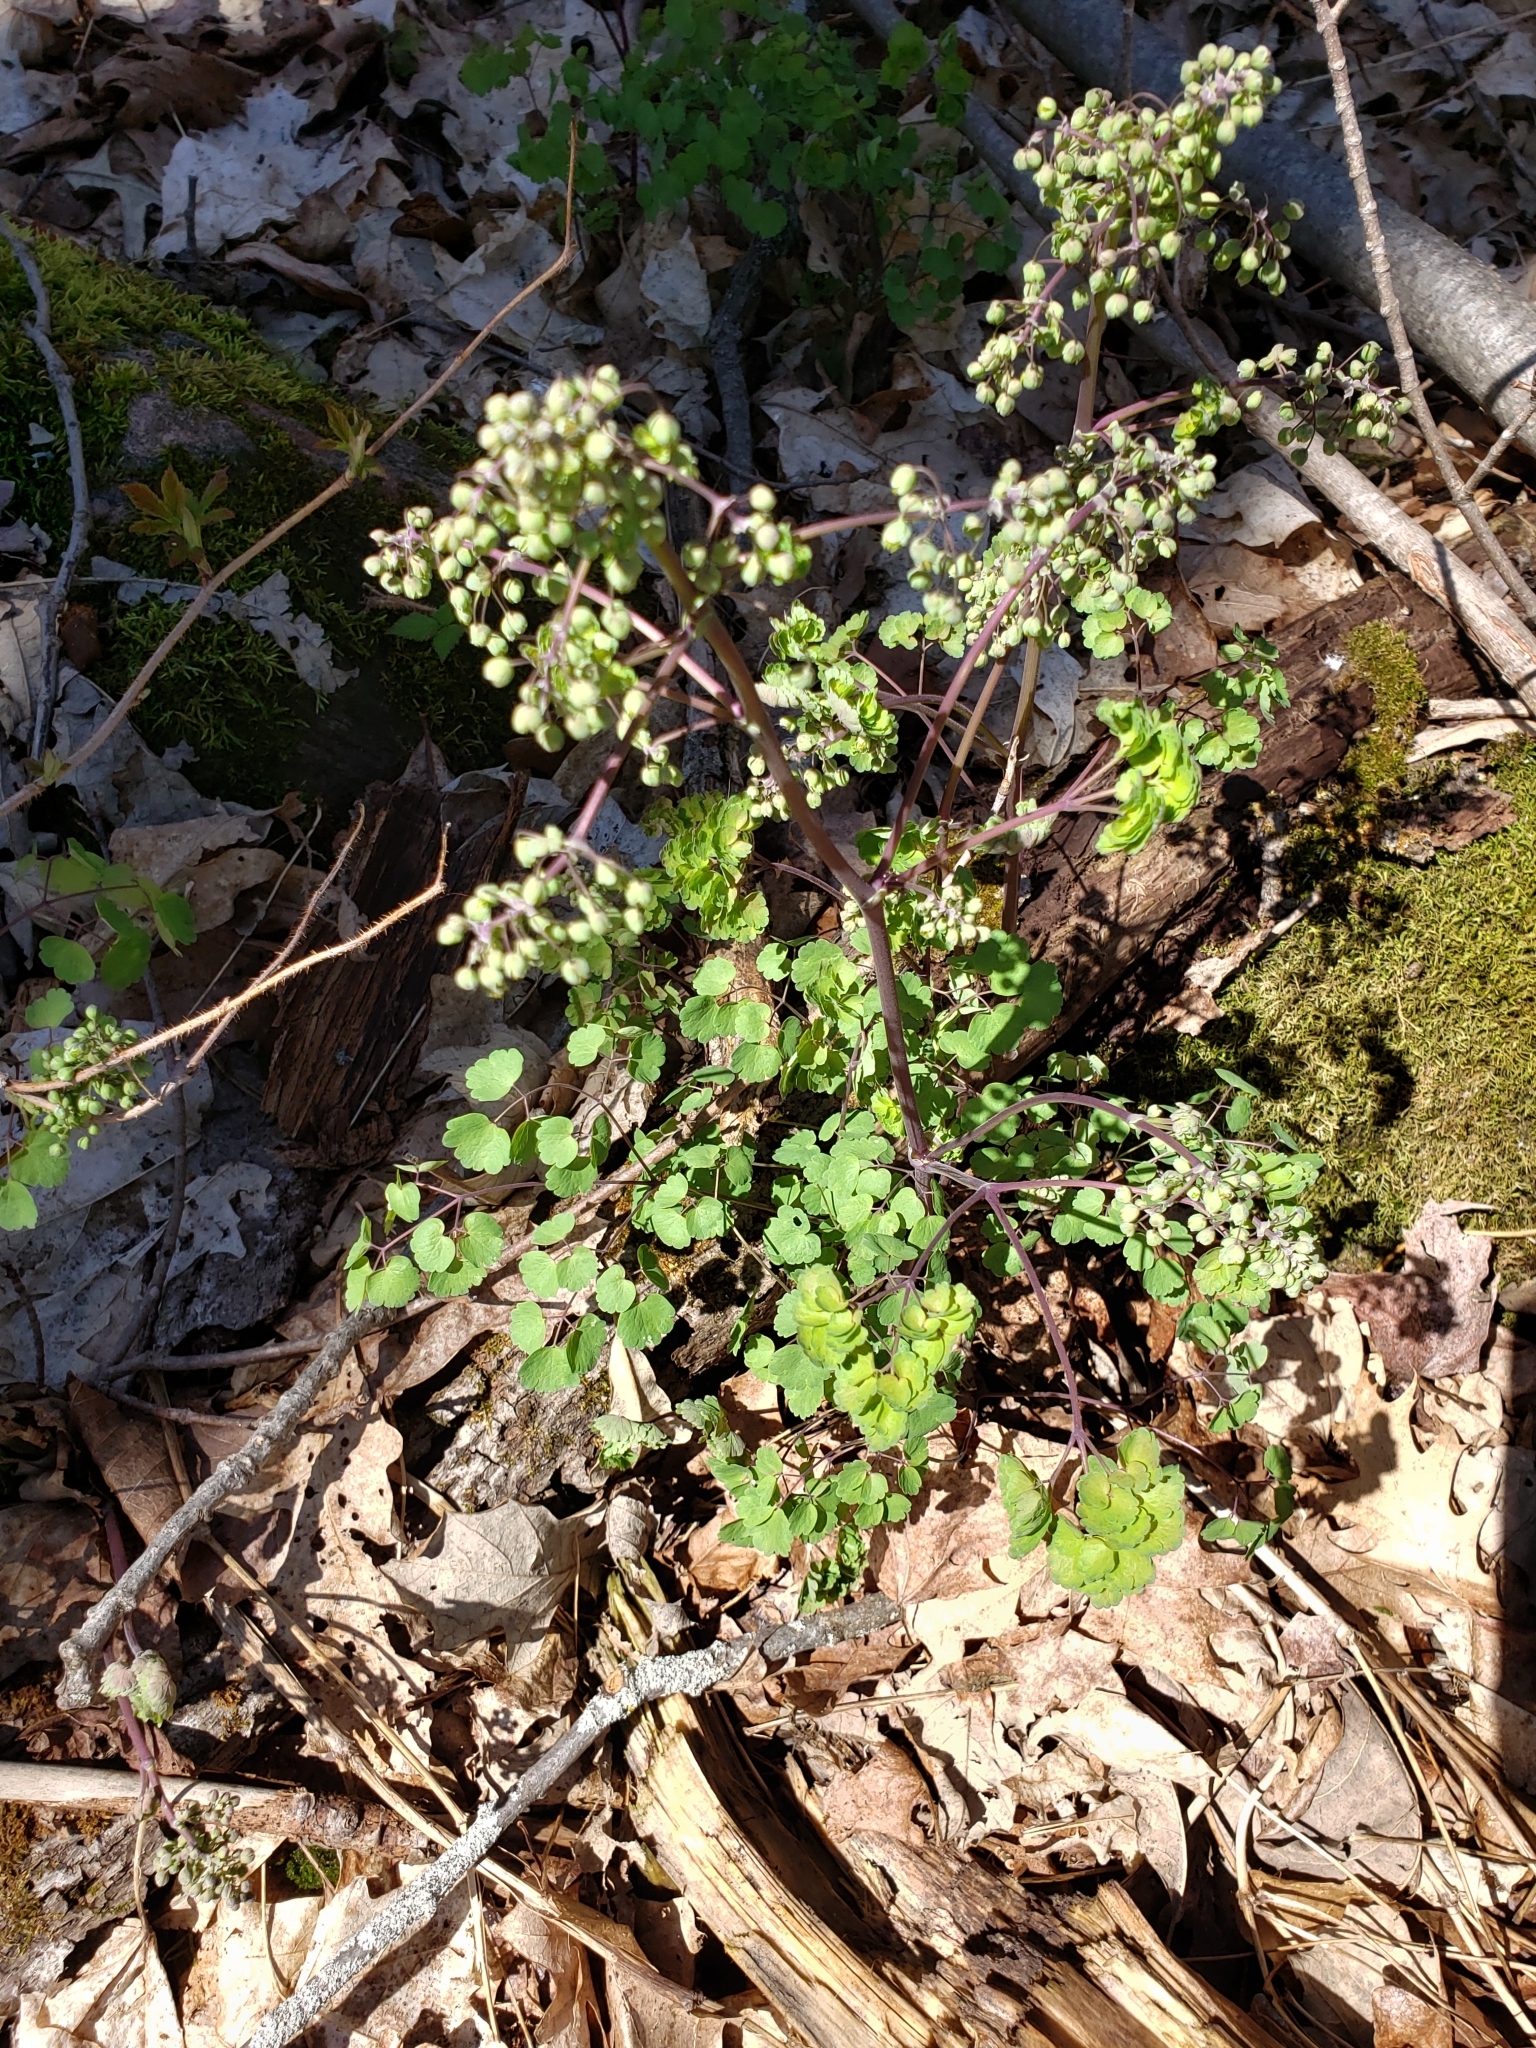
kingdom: Plantae
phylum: Tracheophyta
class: Magnoliopsida
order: Ranunculales
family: Ranunculaceae
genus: Thalictrum
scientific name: Thalictrum dioicum
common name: Early meadow-rue
